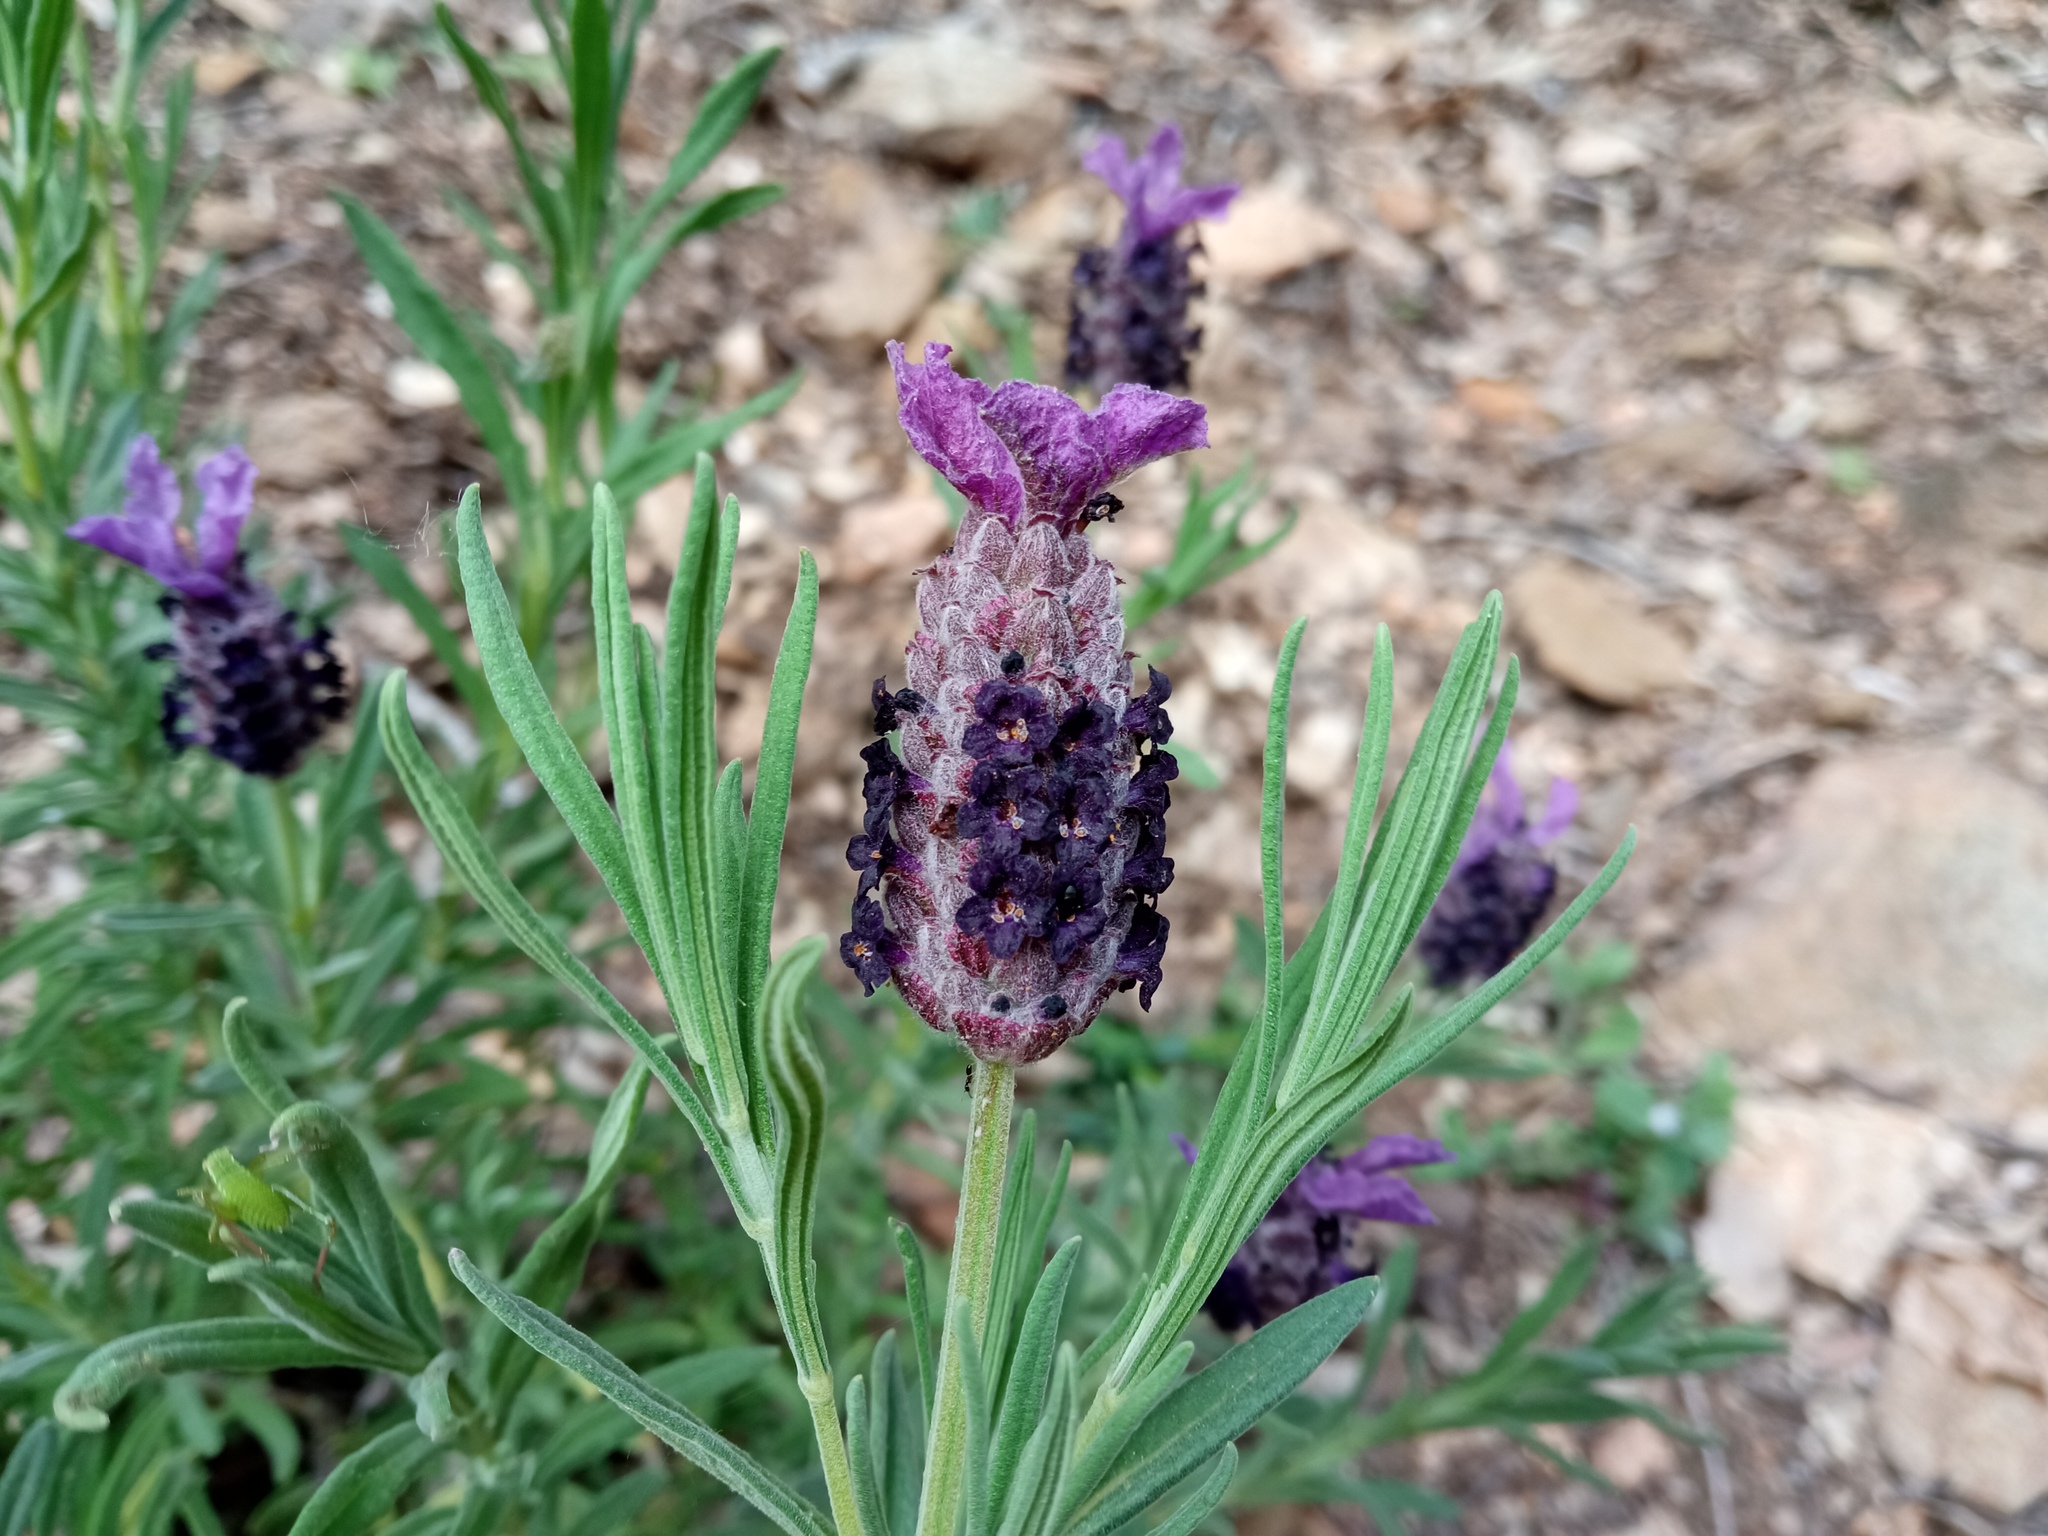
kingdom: Plantae
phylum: Tracheophyta
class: Magnoliopsida
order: Lamiales
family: Lamiaceae
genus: Lavandula
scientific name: Lavandula stoechas
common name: French lavender
